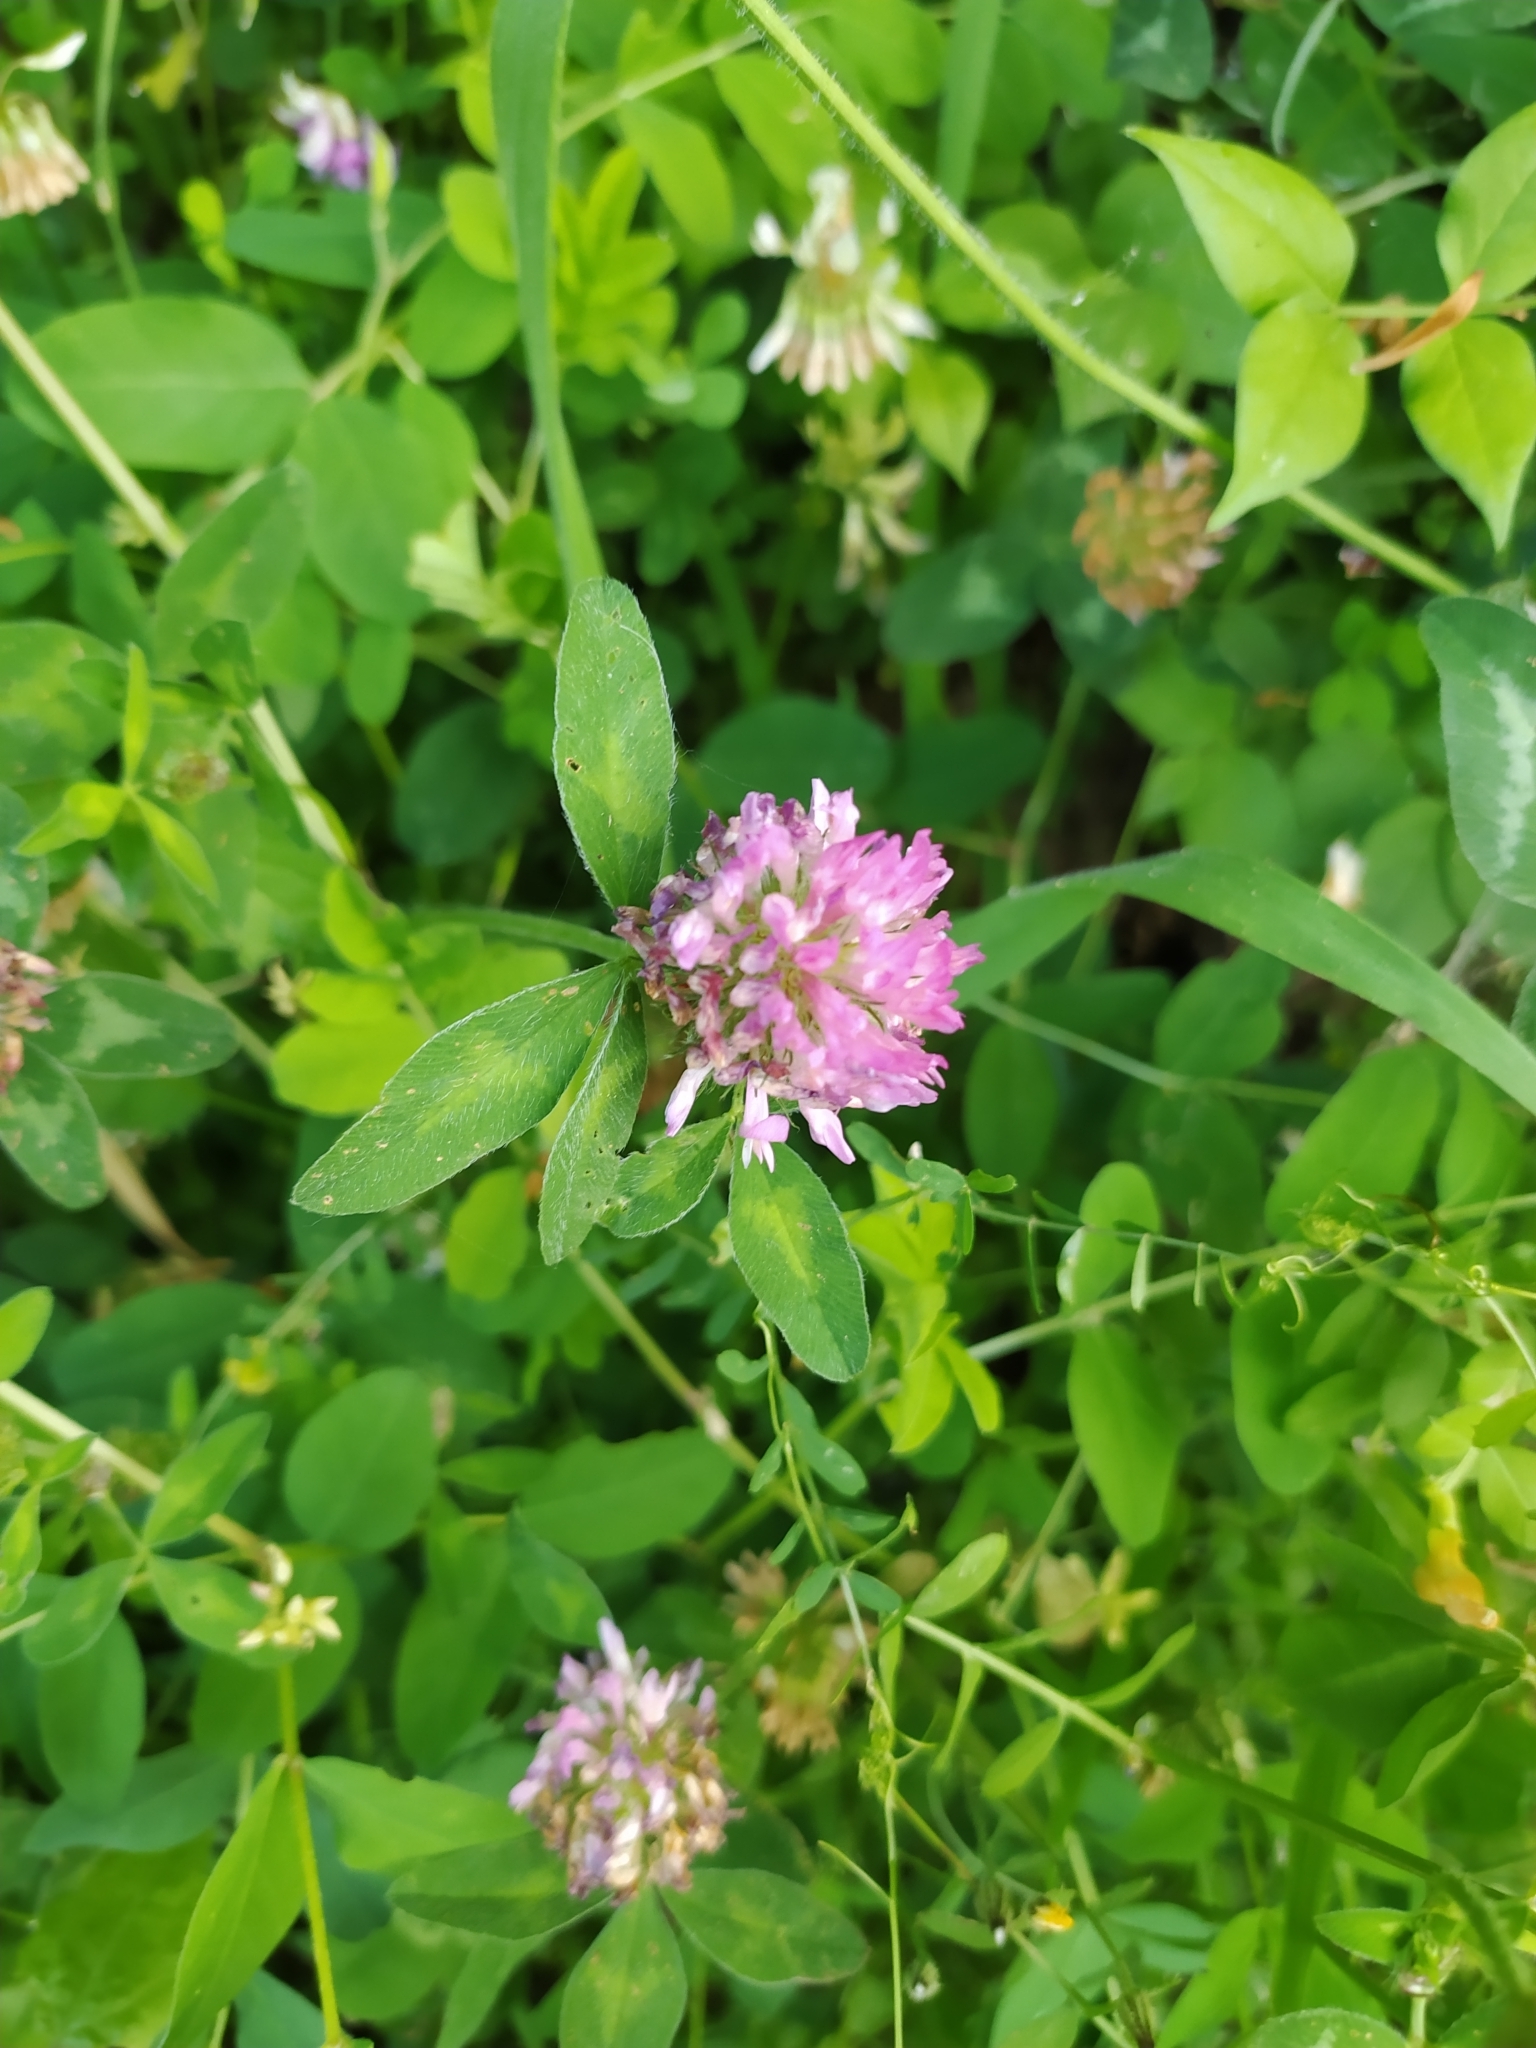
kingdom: Plantae
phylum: Tracheophyta
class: Magnoliopsida
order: Fabales
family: Fabaceae
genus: Trifolium
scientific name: Trifolium pratense
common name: Red clover
